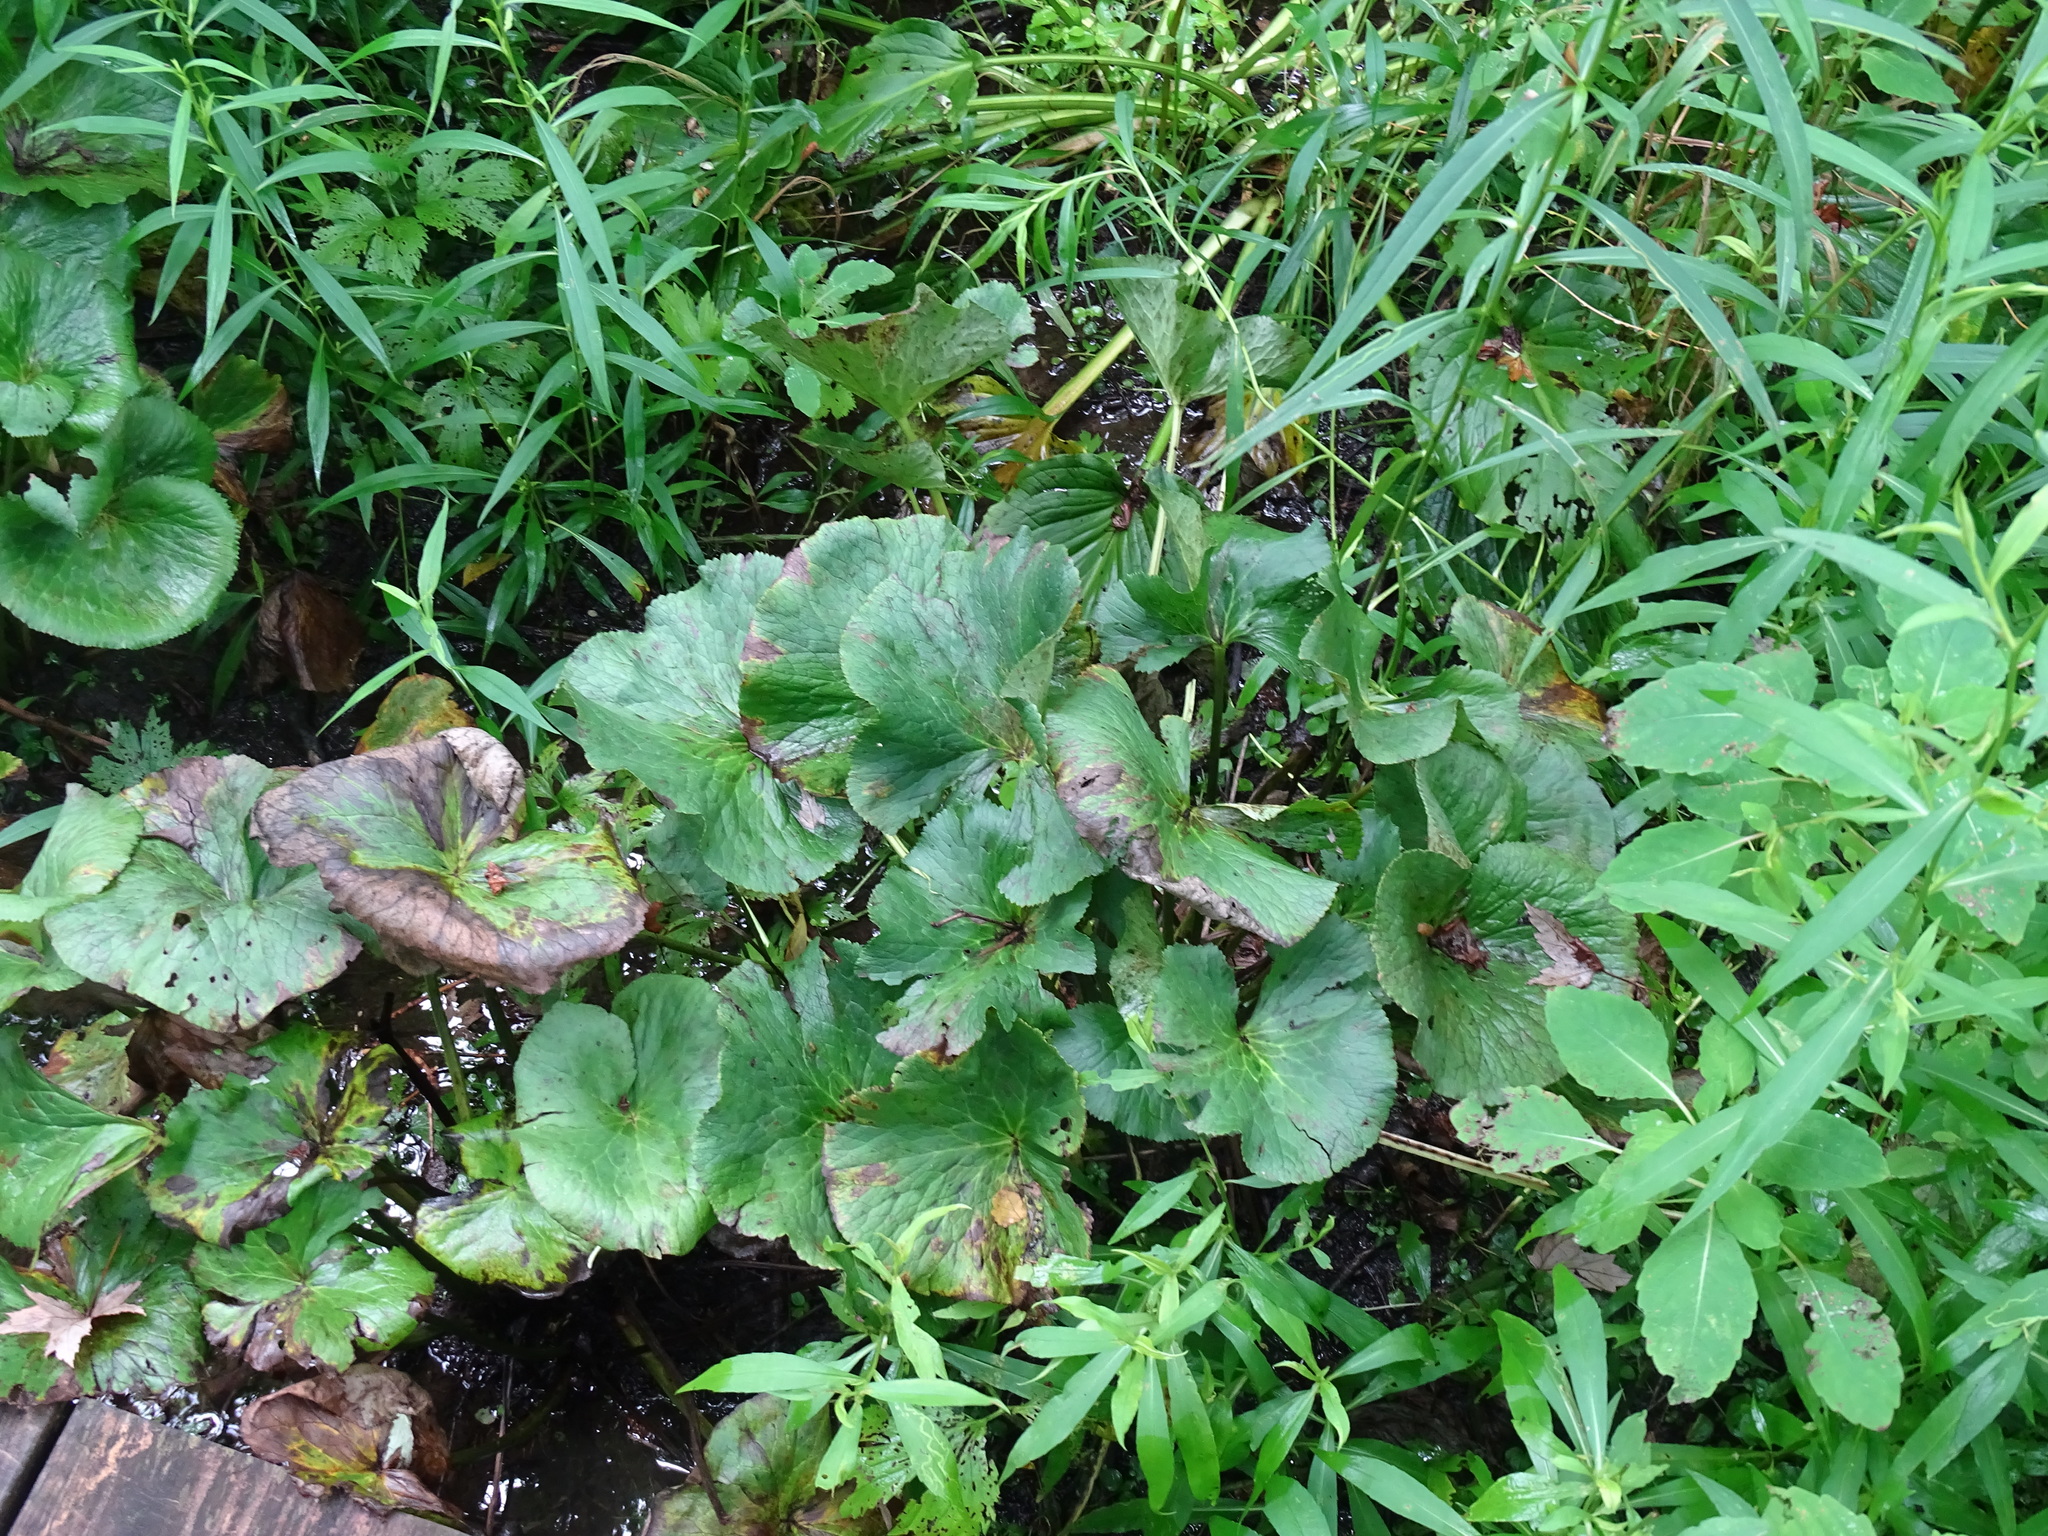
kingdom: Plantae
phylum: Tracheophyta
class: Magnoliopsida
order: Ranunculales
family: Ranunculaceae
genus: Caltha
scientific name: Caltha palustris
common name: Marsh marigold
